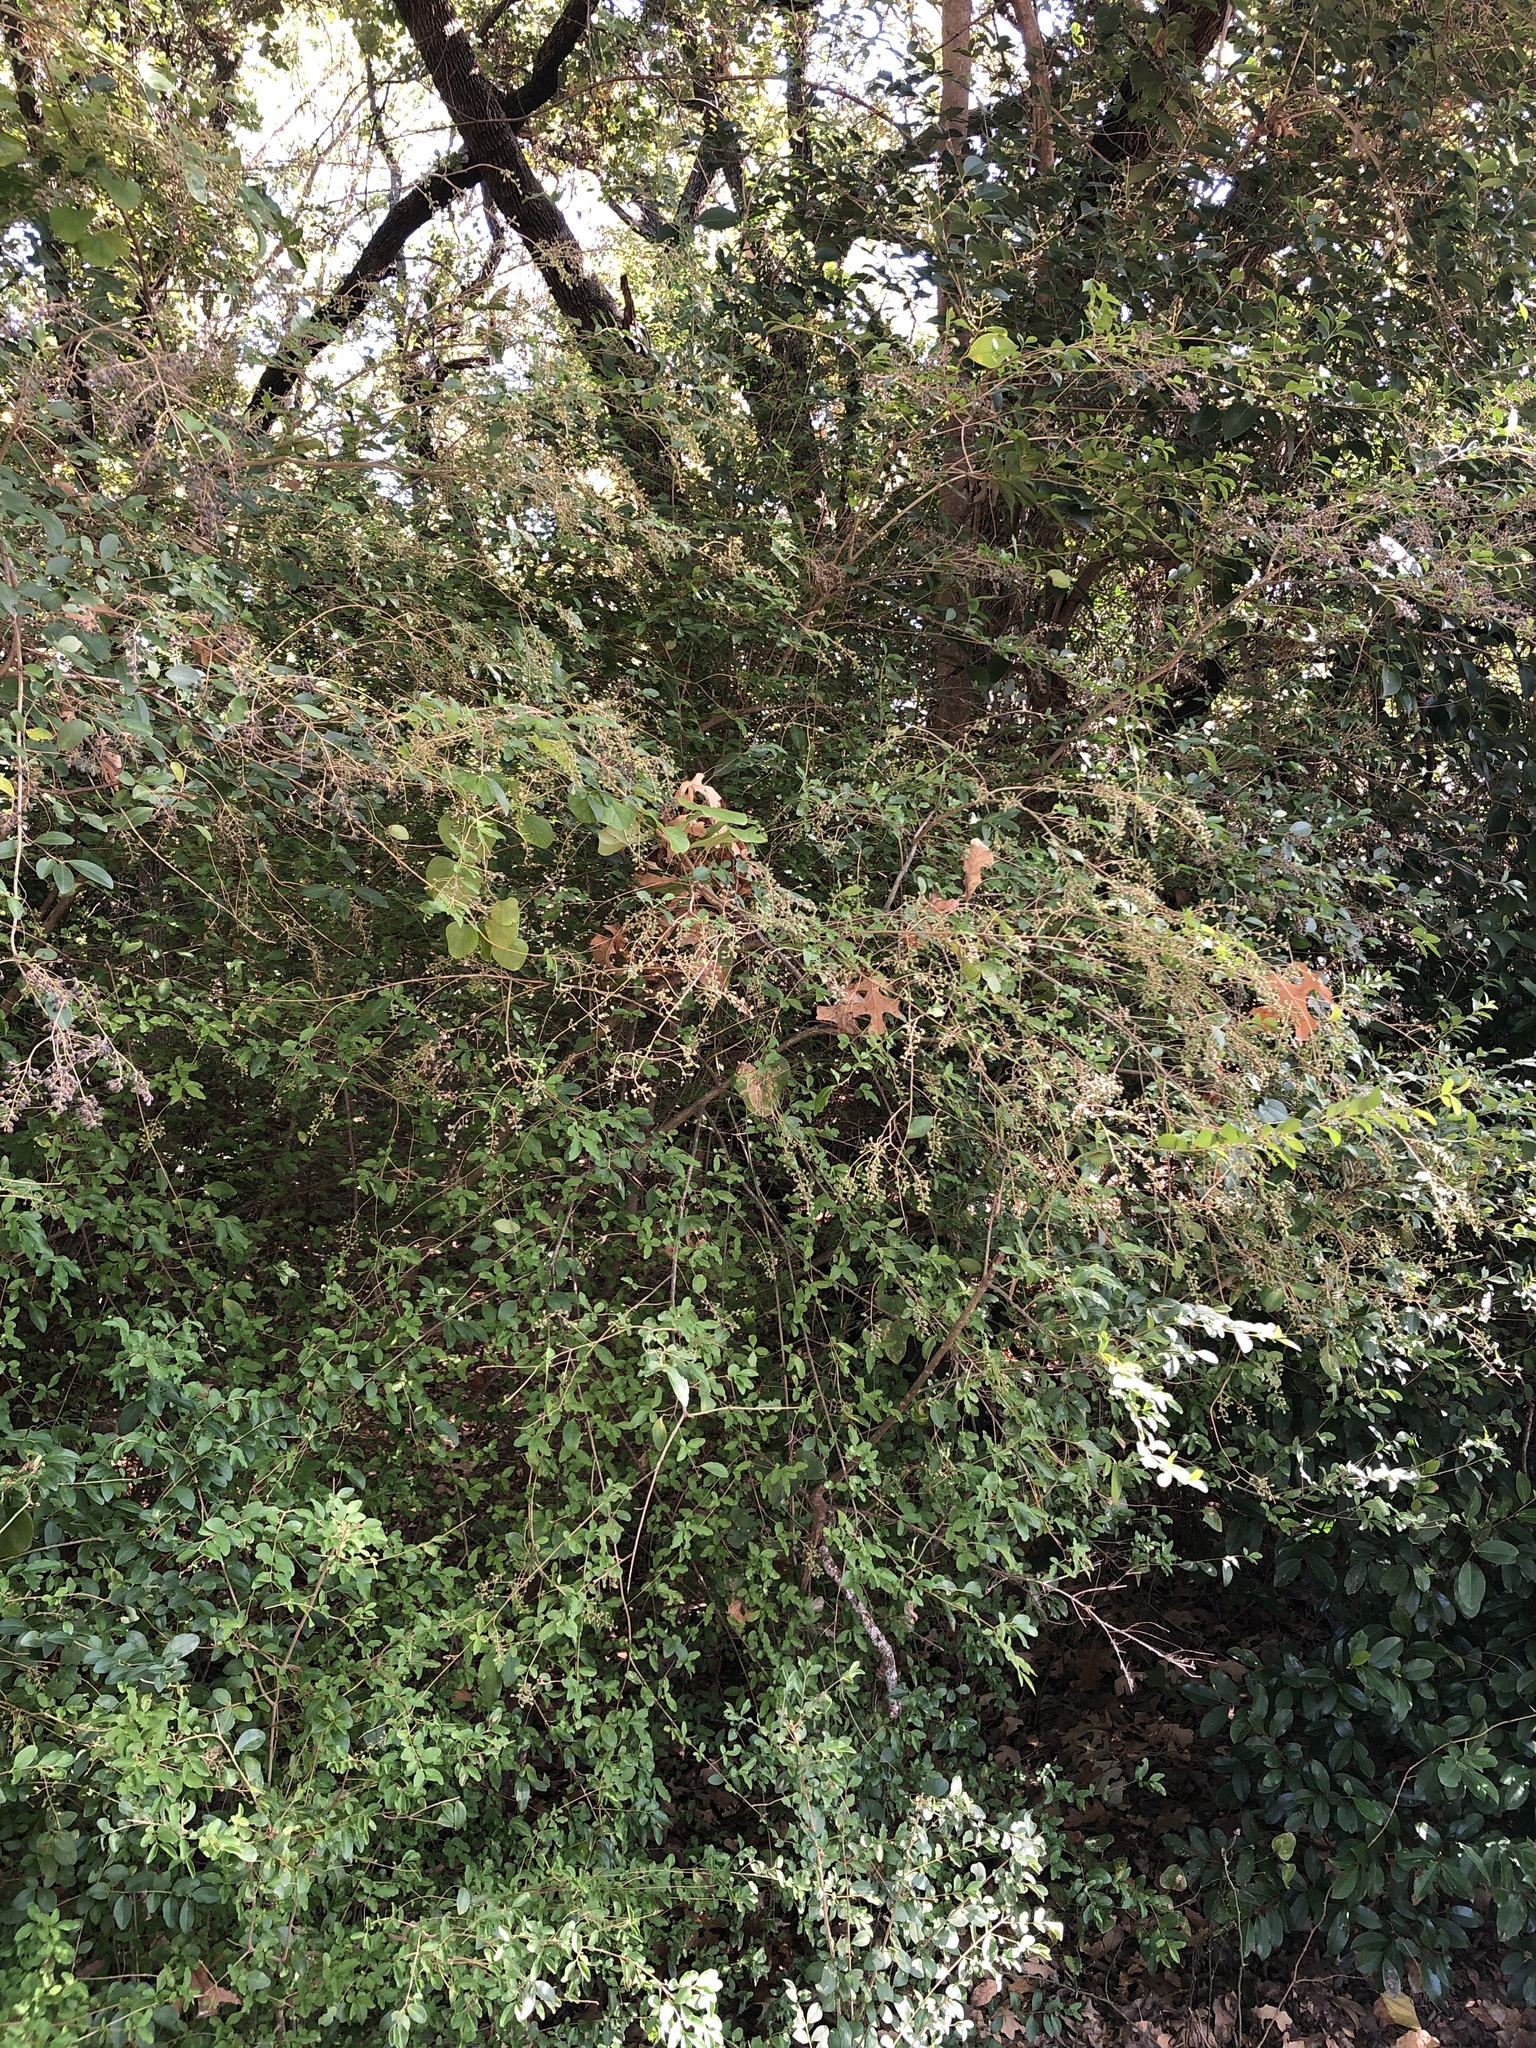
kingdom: Plantae
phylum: Tracheophyta
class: Magnoliopsida
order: Lamiales
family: Oleaceae
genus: Ligustrum
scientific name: Ligustrum sinense
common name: Chinese privet
